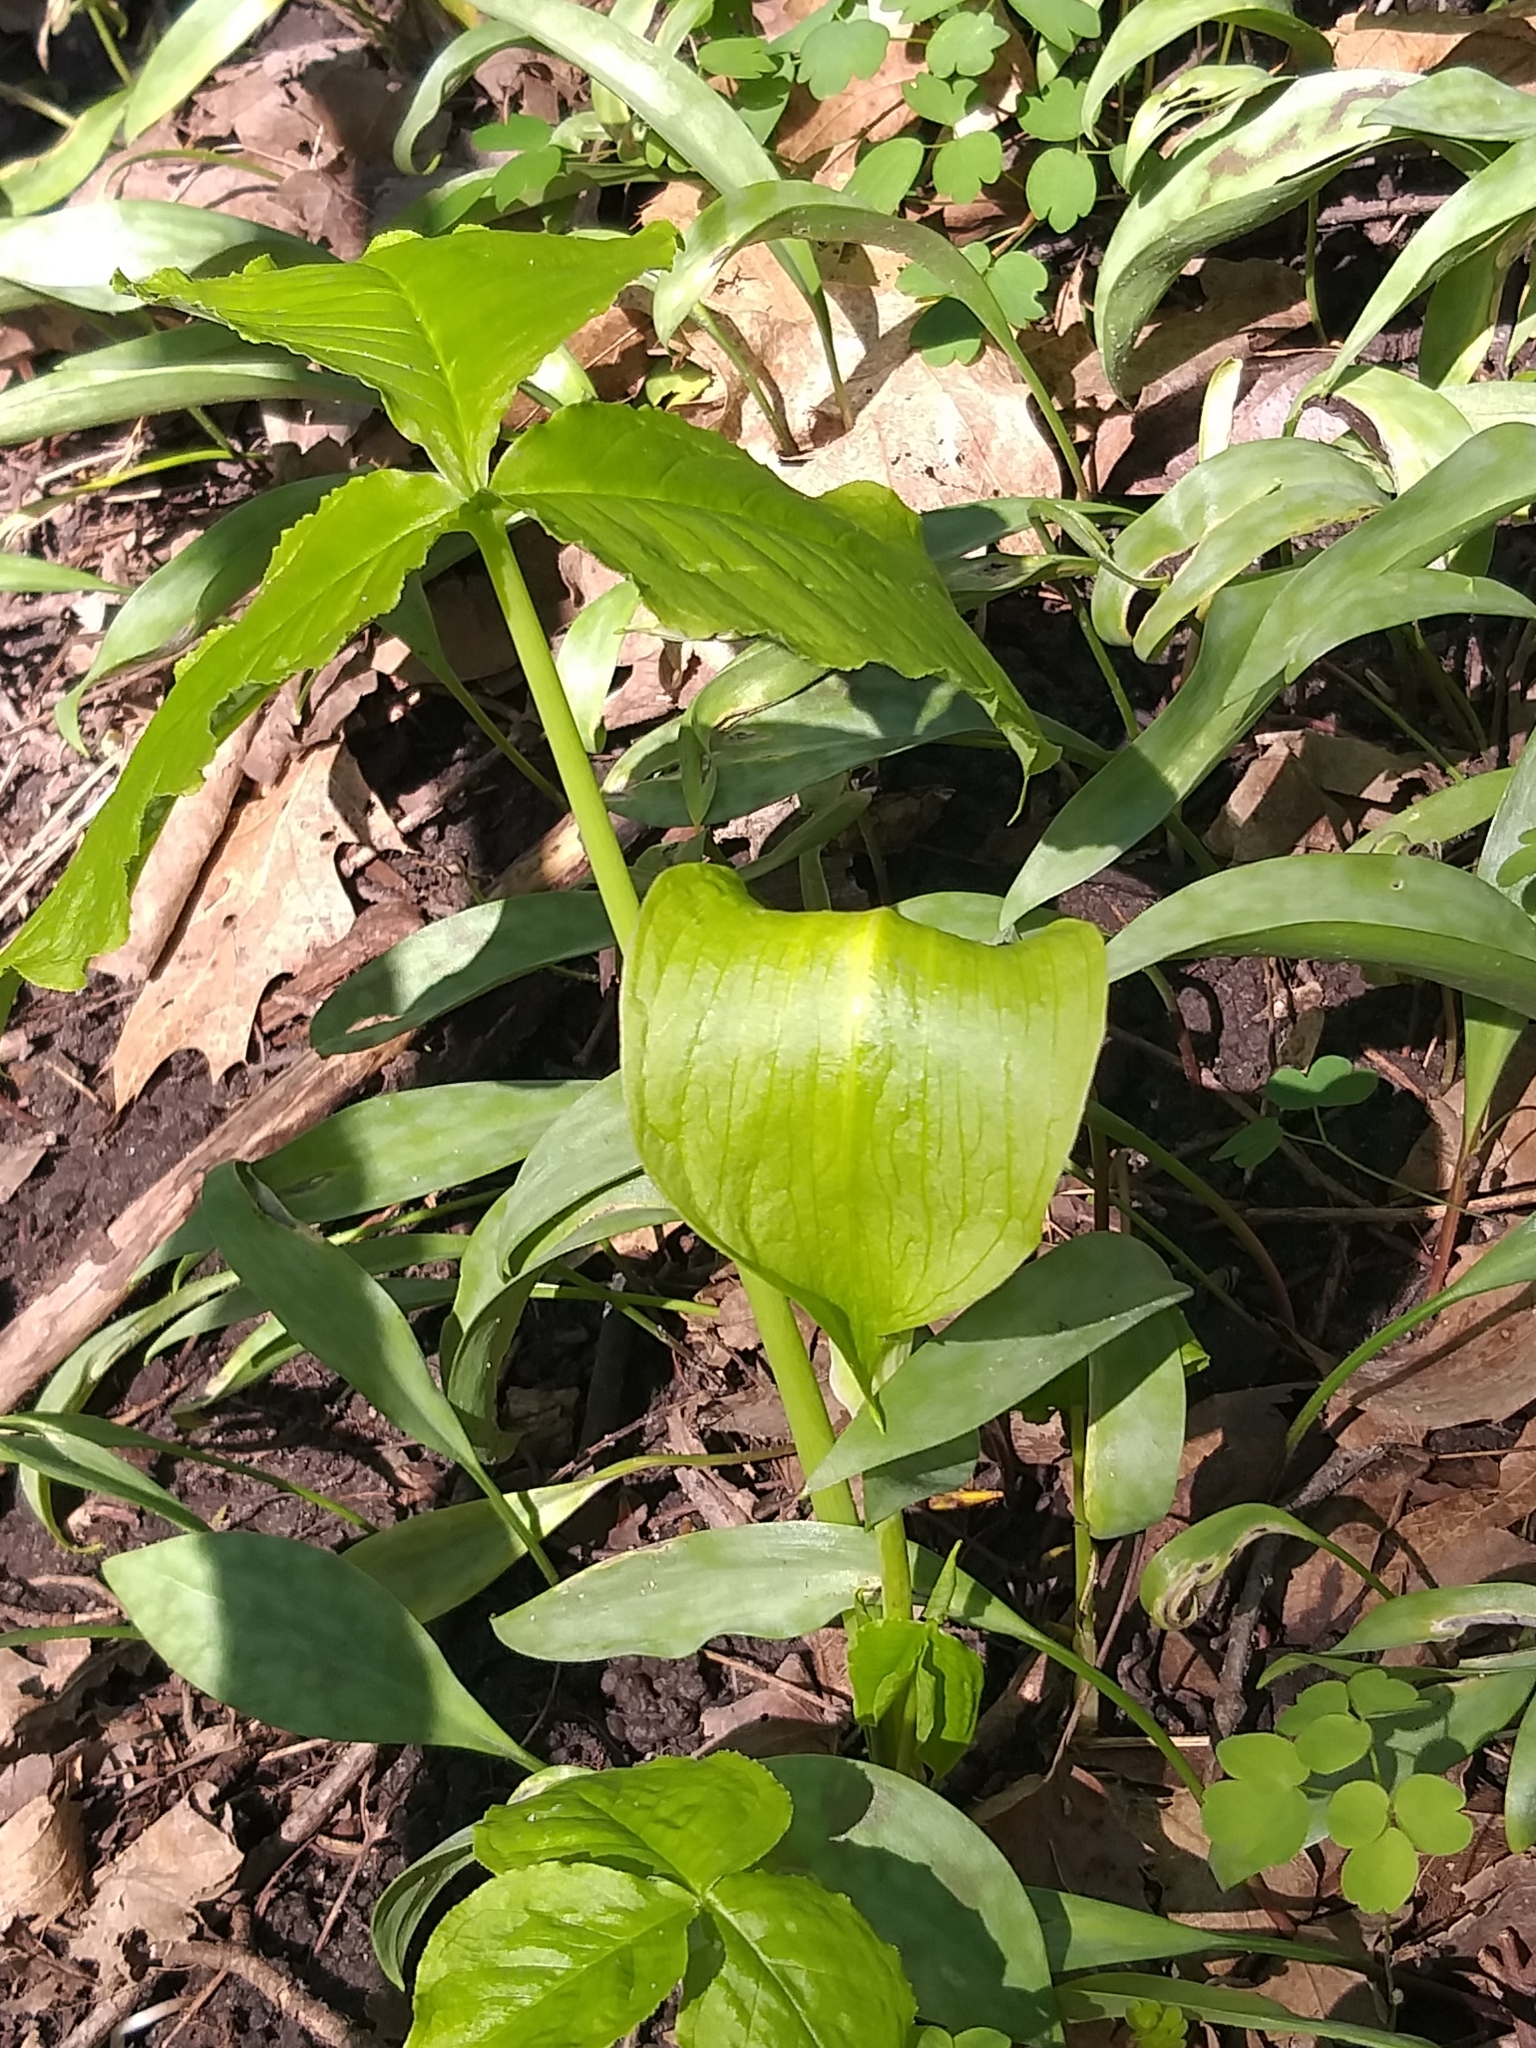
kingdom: Plantae
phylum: Tracheophyta
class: Liliopsida
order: Alismatales
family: Araceae
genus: Arisaema
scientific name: Arisaema triphyllum
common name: Jack-in-the-pulpit
